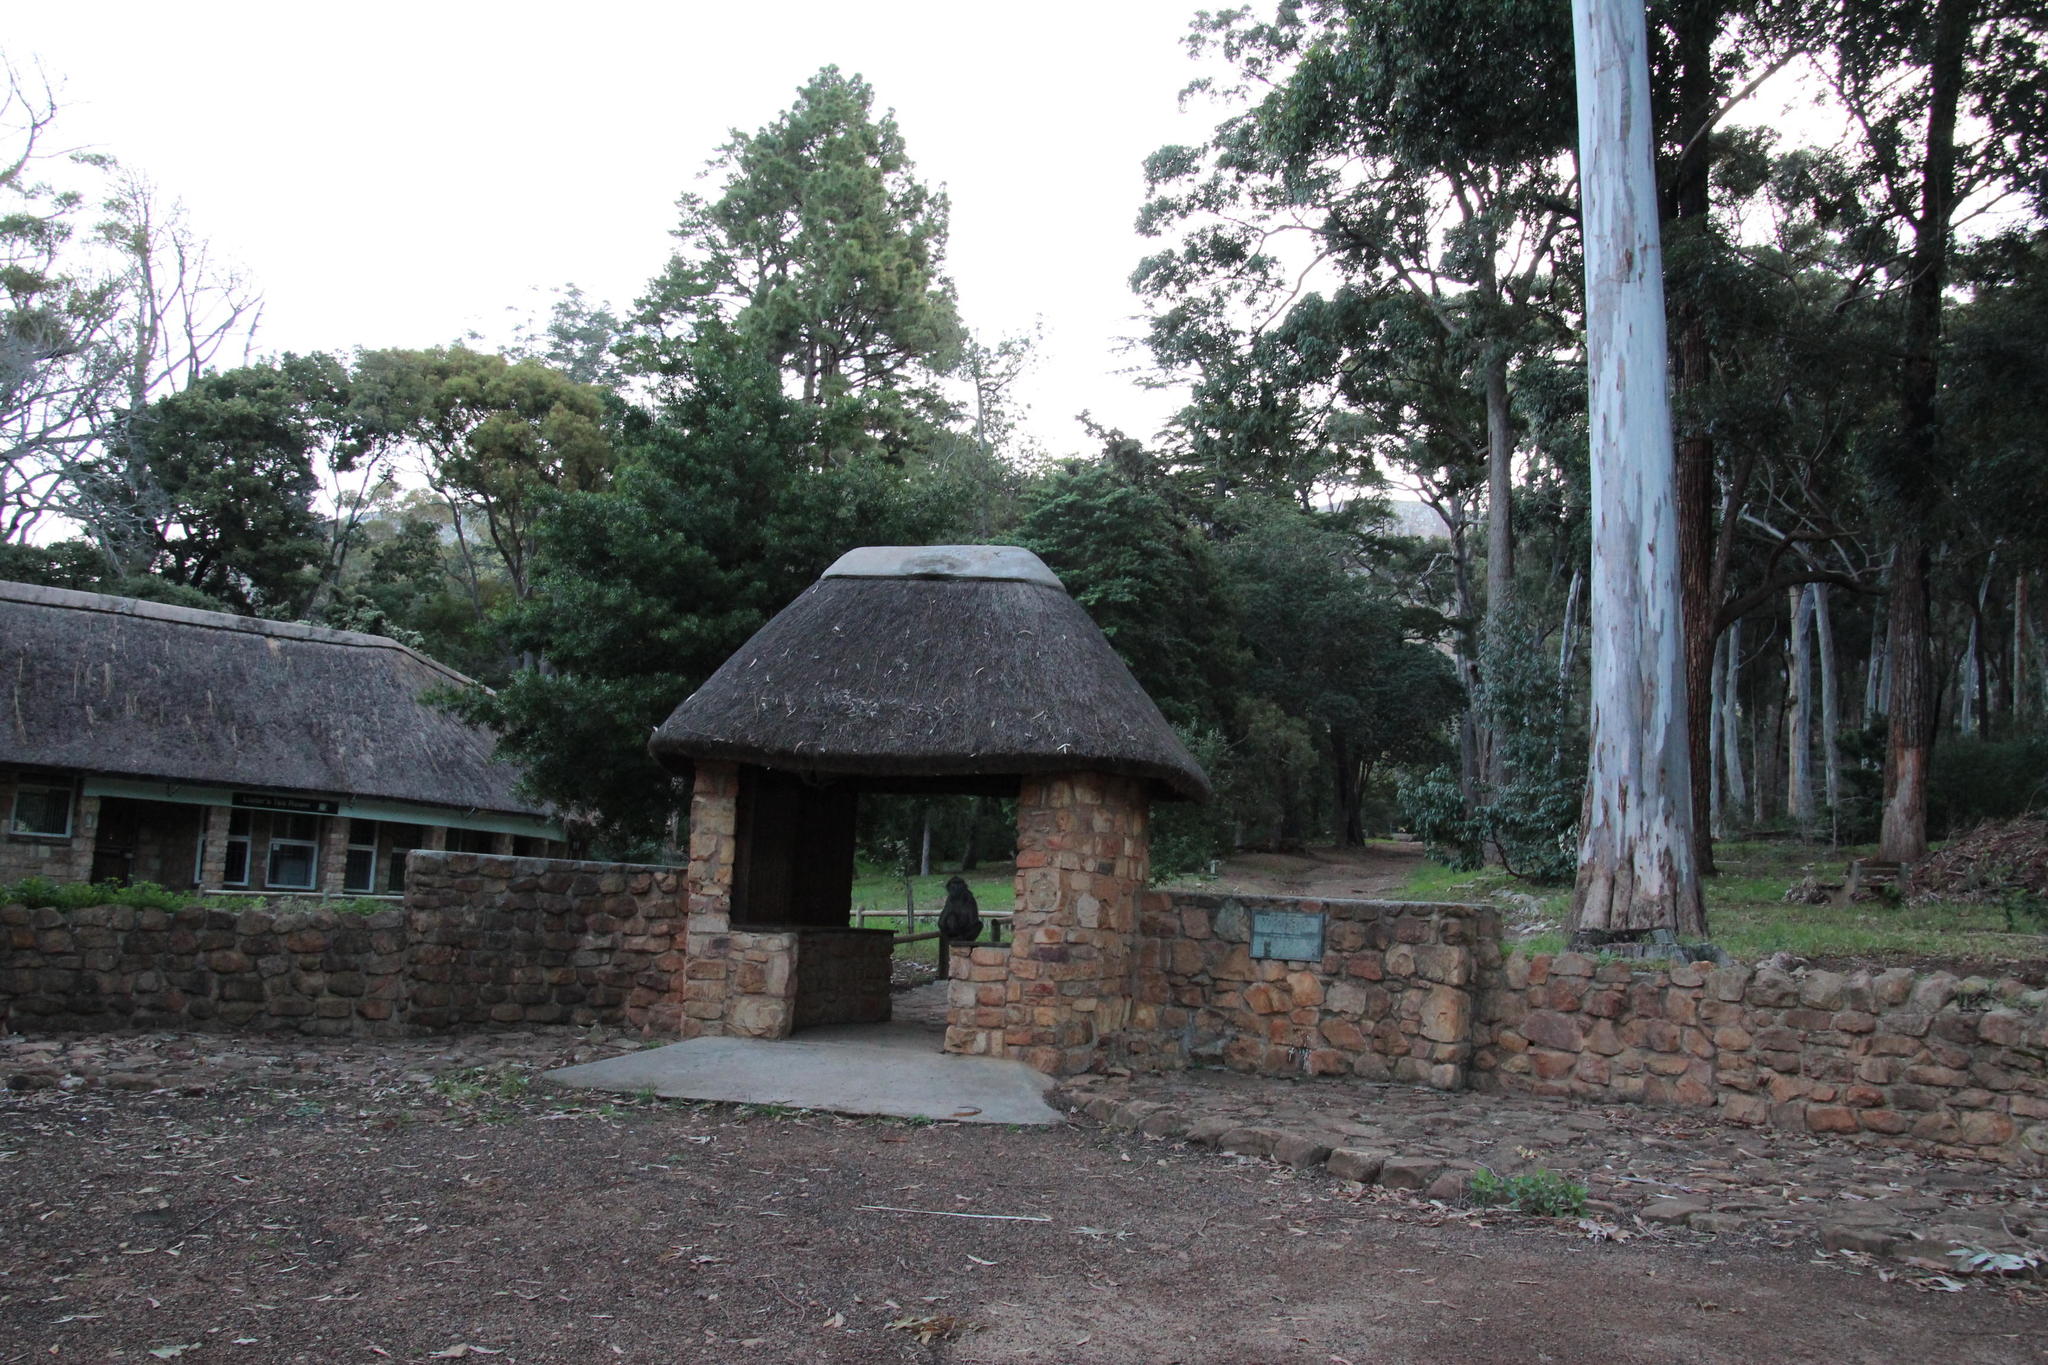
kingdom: Animalia
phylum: Chordata
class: Mammalia
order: Primates
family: Cercopithecidae
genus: Papio
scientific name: Papio ursinus
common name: Chacma baboon
